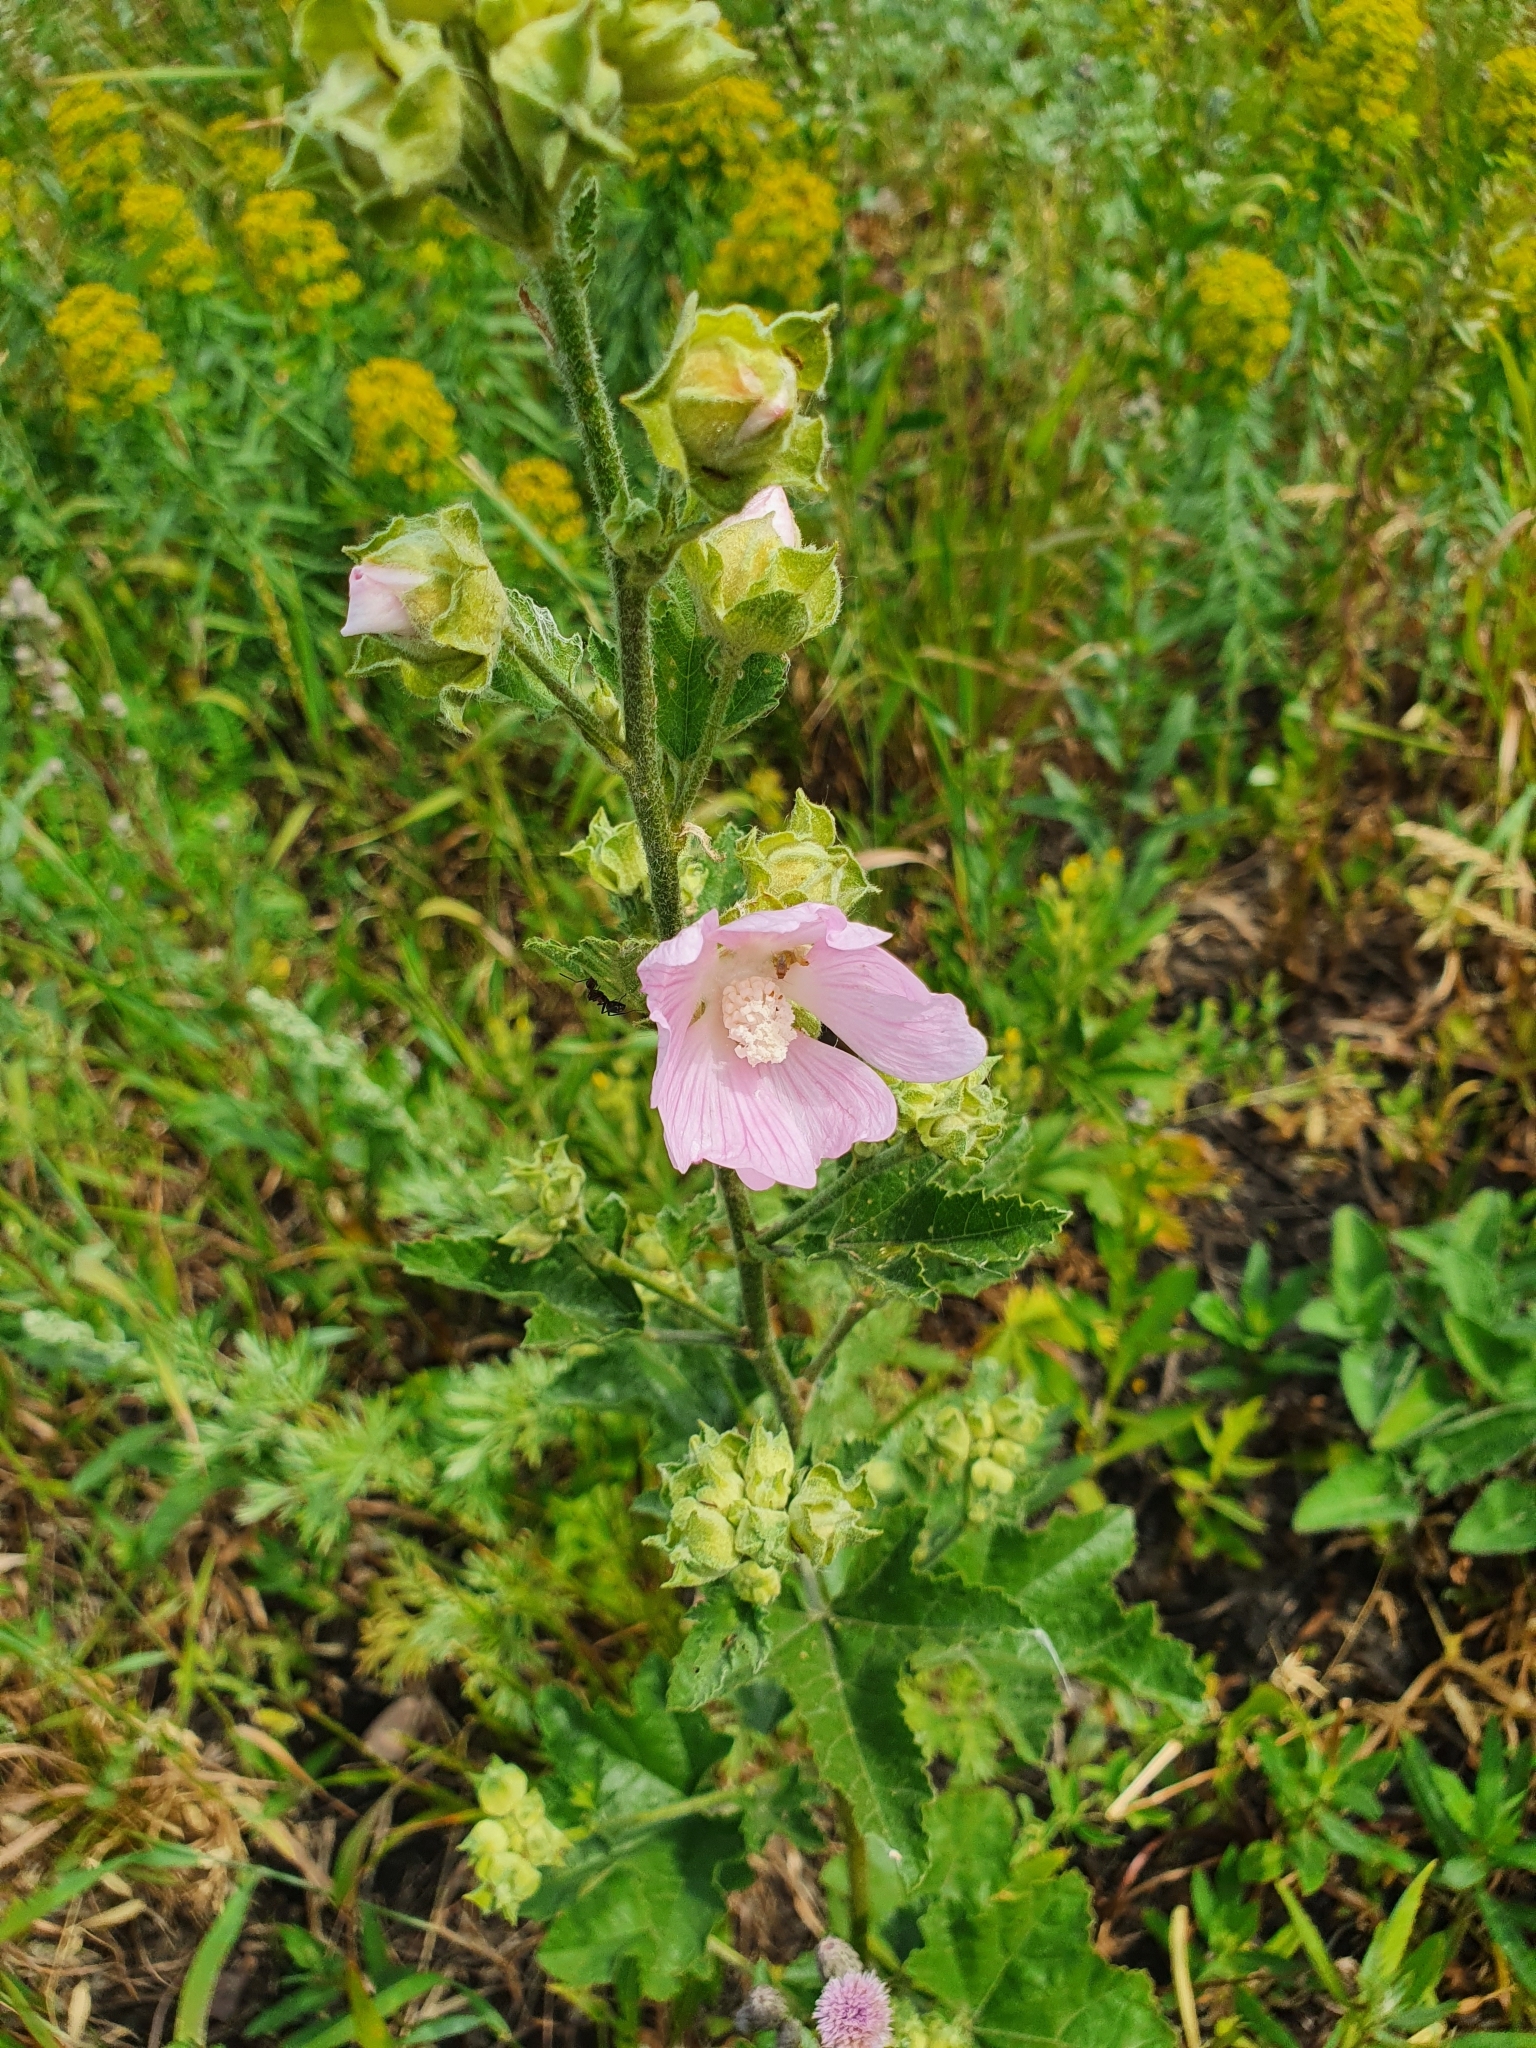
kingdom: Plantae
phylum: Tracheophyta
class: Magnoliopsida
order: Malvales
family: Malvaceae
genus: Malva
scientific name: Malva thuringiaca
